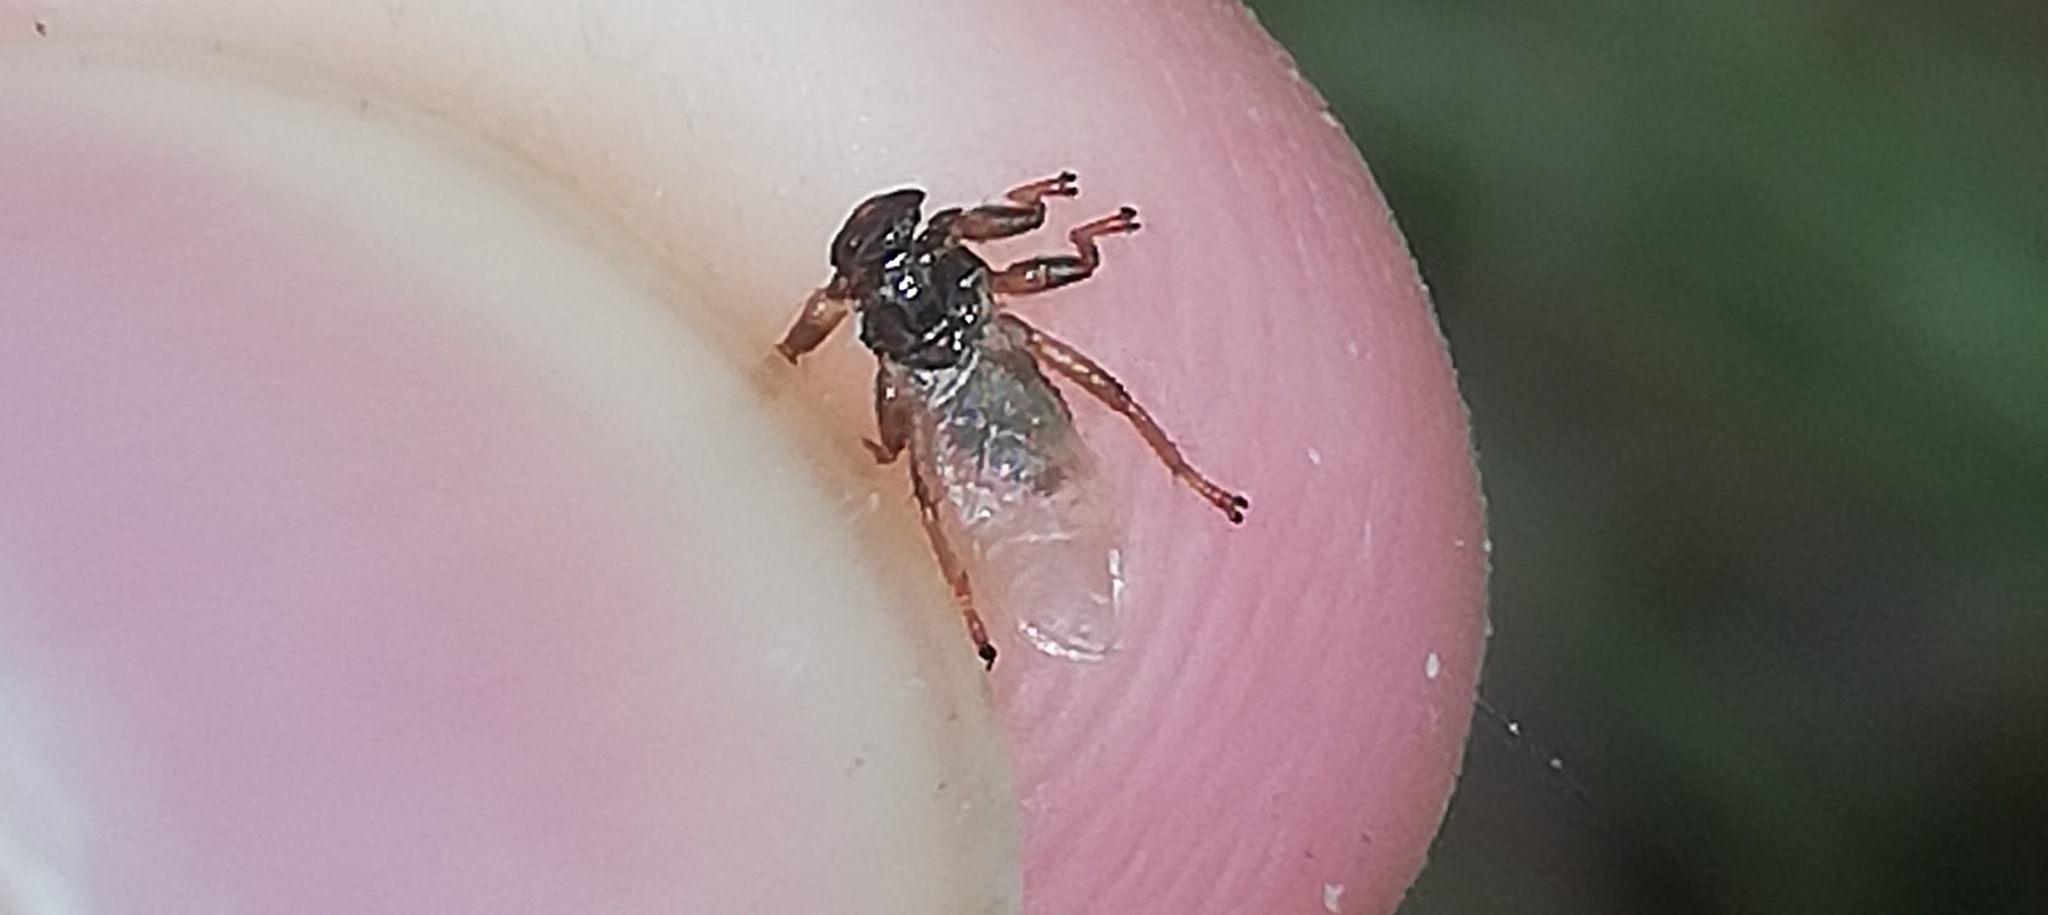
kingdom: Animalia
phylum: Arthropoda
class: Insecta
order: Diptera
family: Hippoboscidae
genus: Lipoptena
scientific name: Lipoptena cervi
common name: Deer ked
